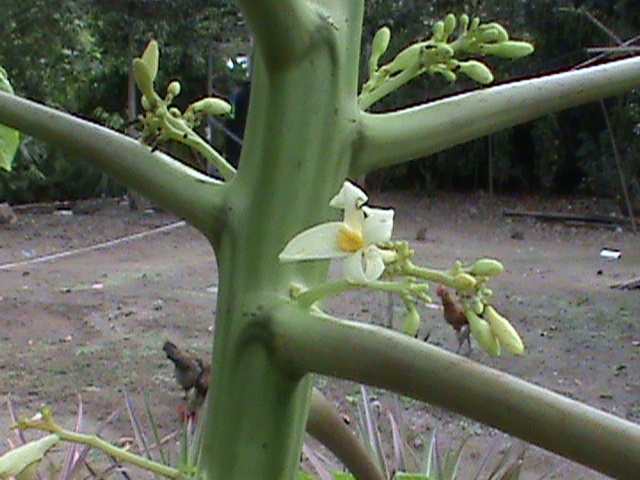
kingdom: Plantae
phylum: Tracheophyta
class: Magnoliopsida
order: Brassicales
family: Caricaceae
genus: Carica
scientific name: Carica papaya
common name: Papaya
